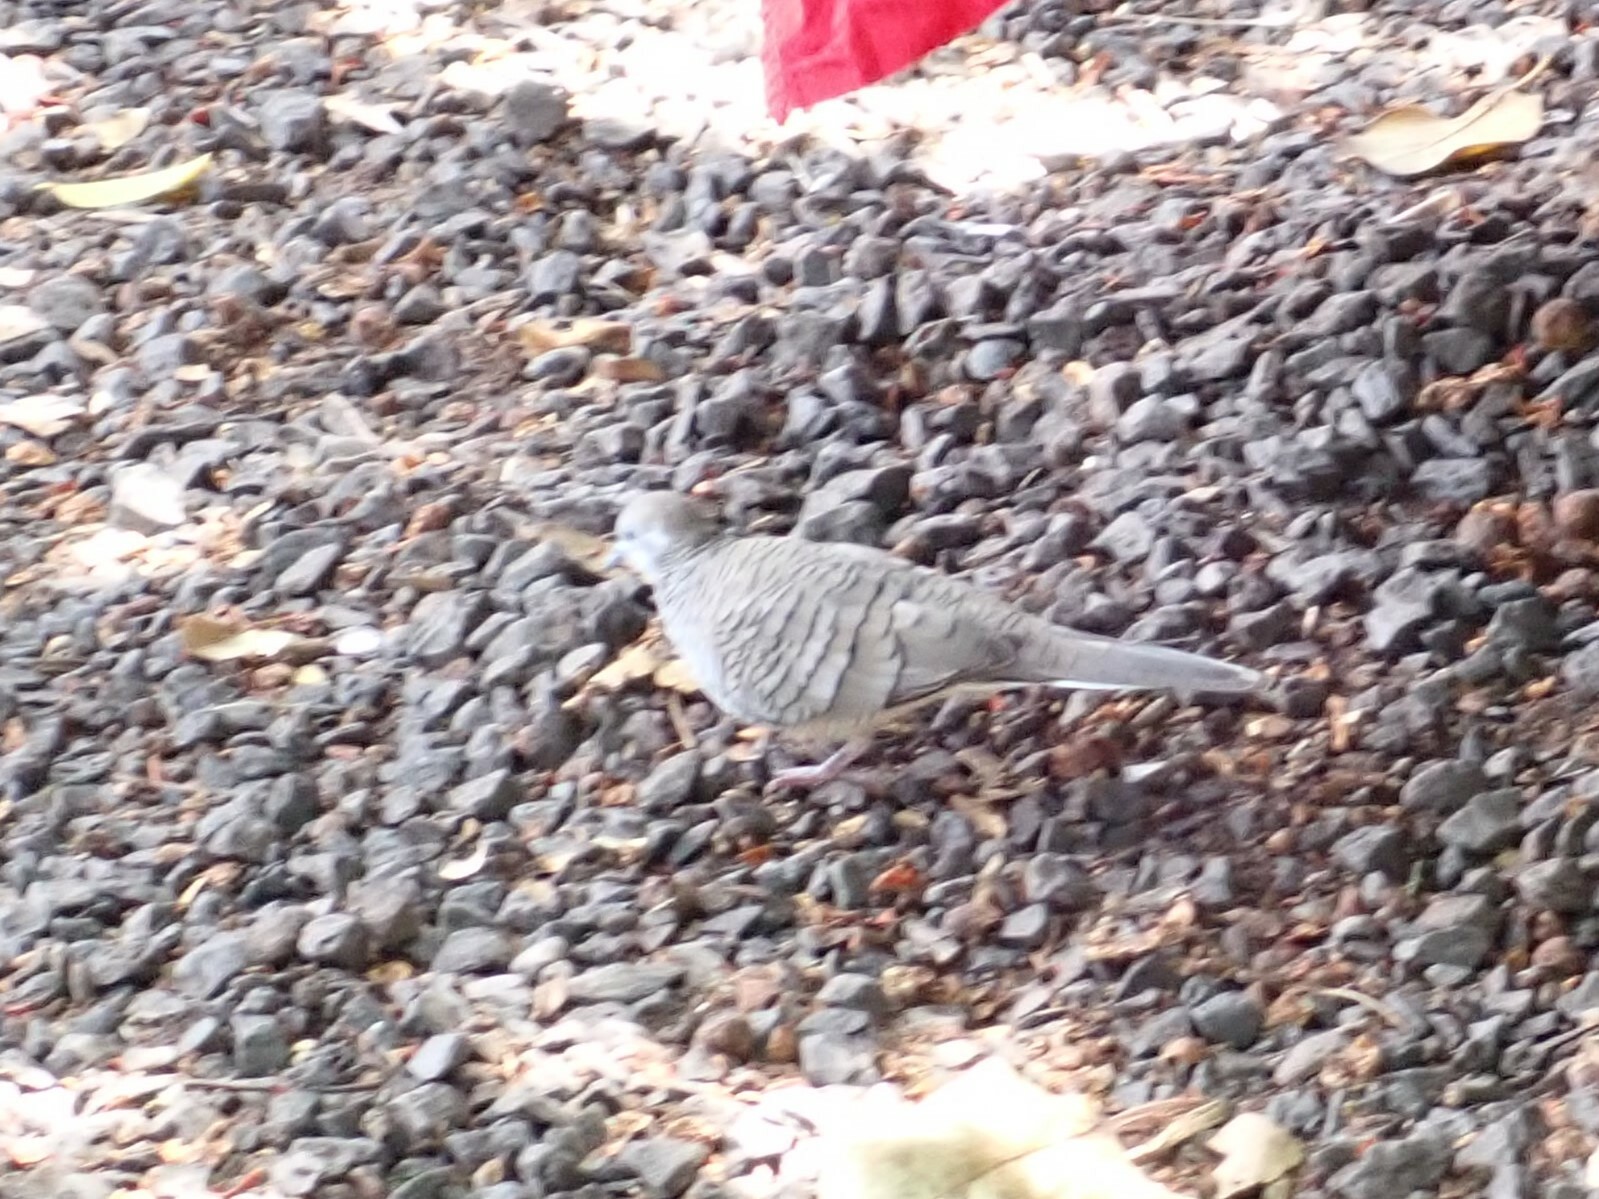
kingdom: Animalia
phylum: Chordata
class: Aves
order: Columbiformes
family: Columbidae
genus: Geopelia
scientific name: Geopelia striata
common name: Zebra dove
